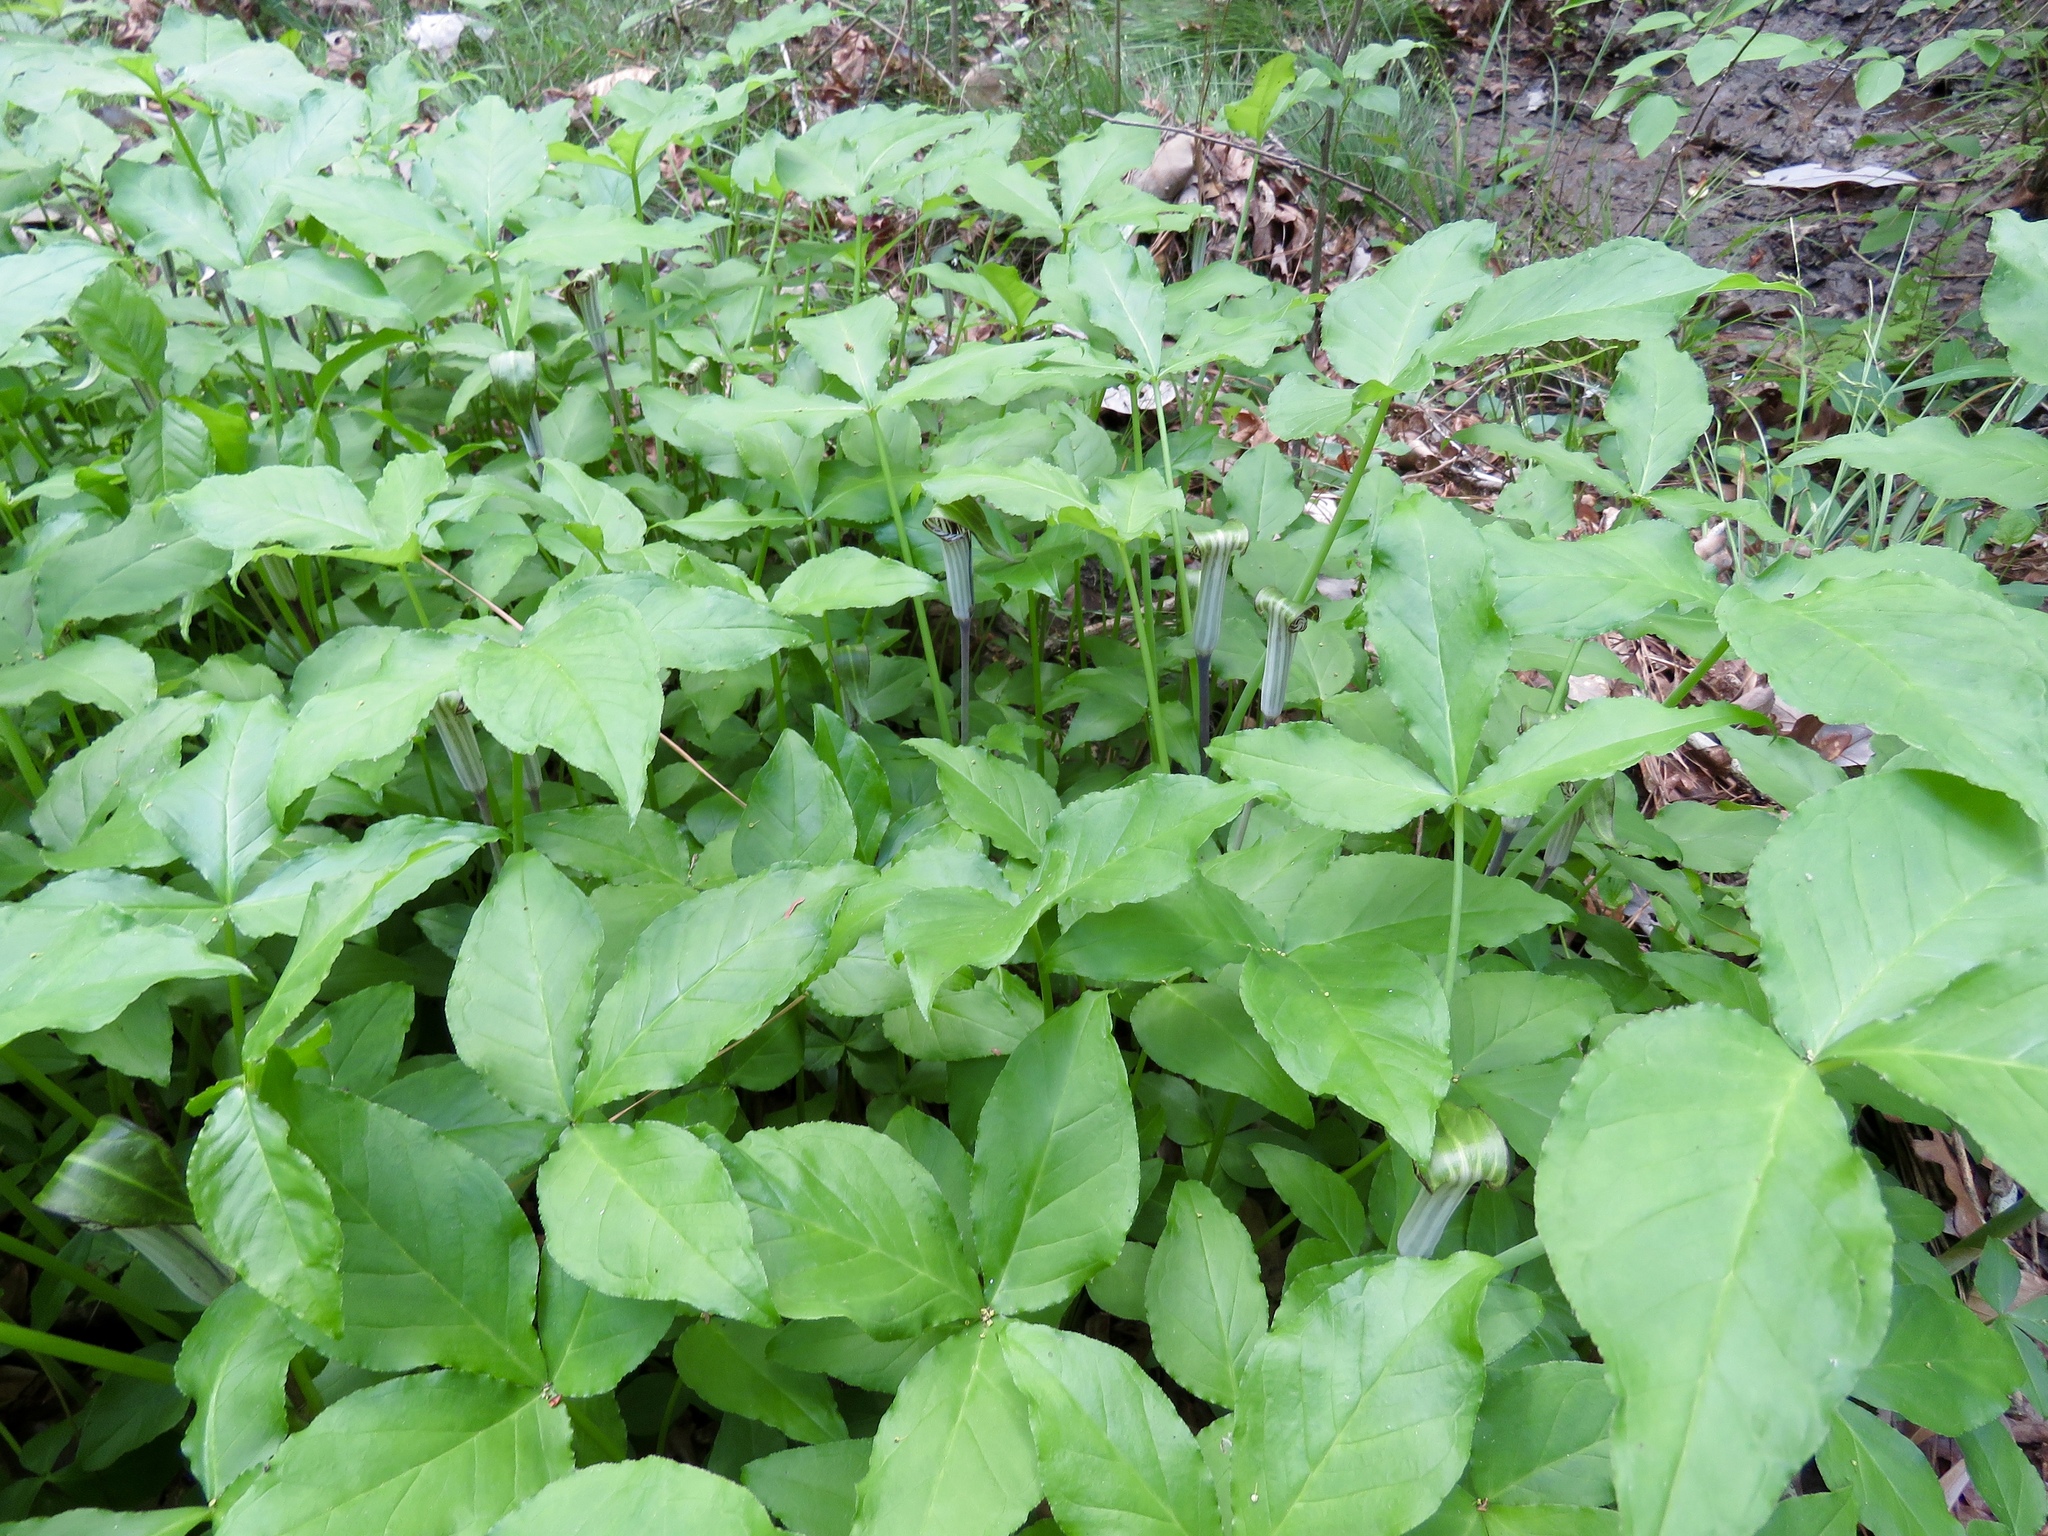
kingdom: Plantae
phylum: Tracheophyta
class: Liliopsida
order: Alismatales
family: Araceae
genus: Arisaema
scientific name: Arisaema triphyllum
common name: Jack-in-the-pulpit
